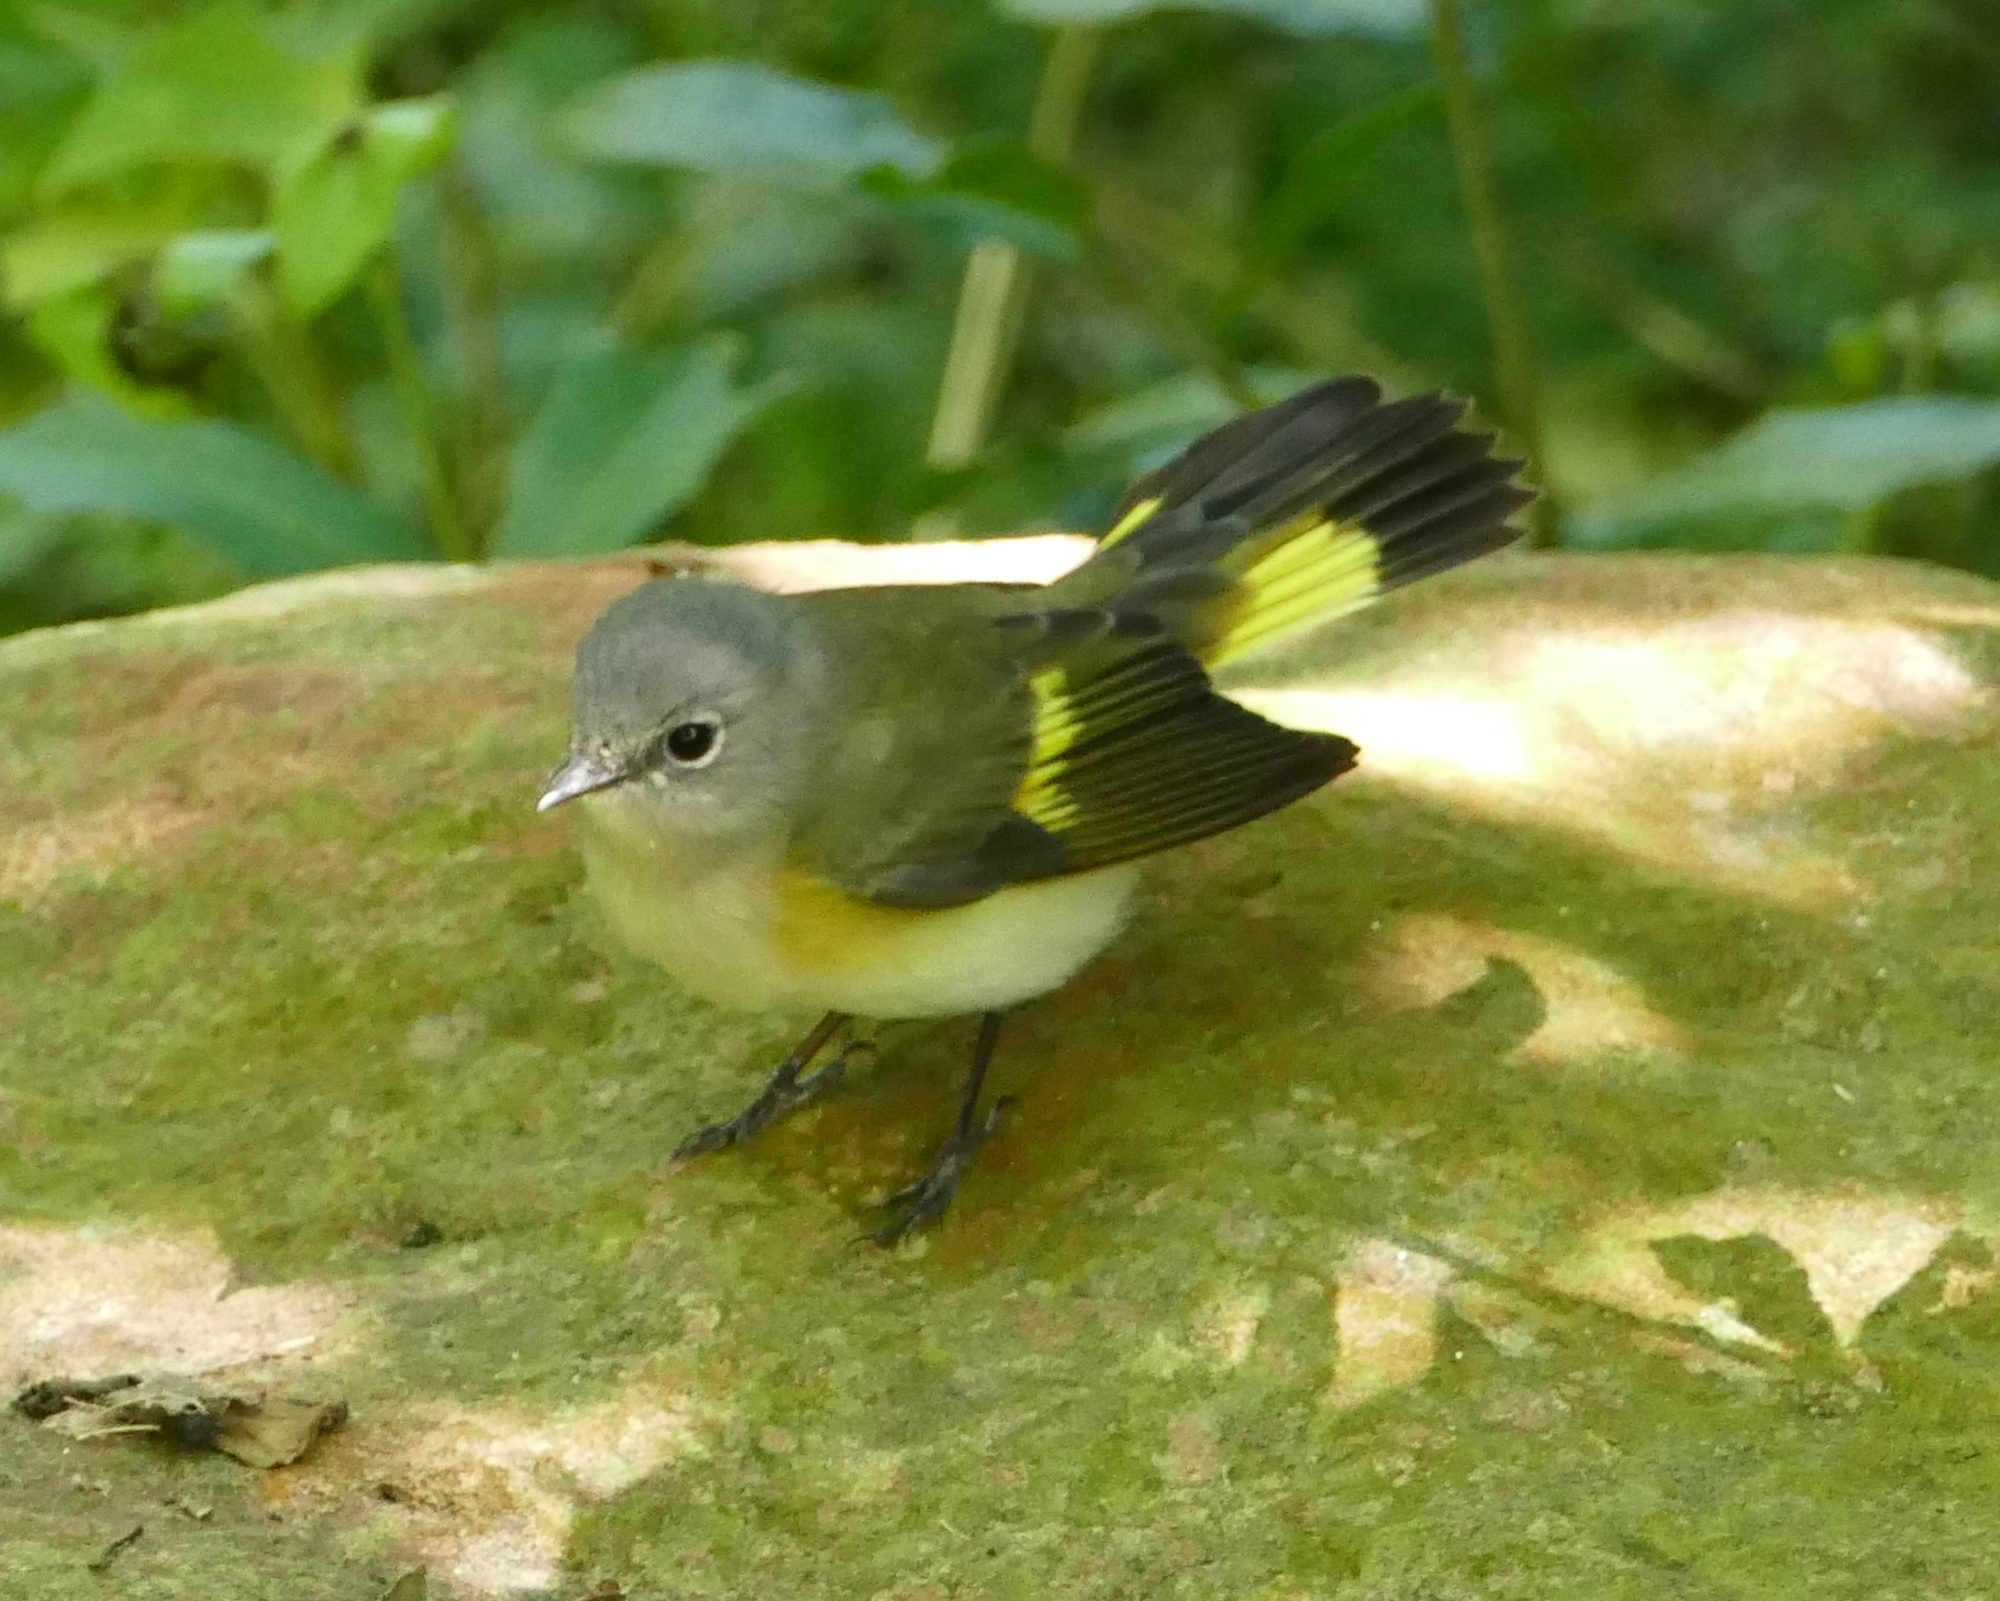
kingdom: Animalia
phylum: Chordata
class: Aves
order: Passeriformes
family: Parulidae
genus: Setophaga
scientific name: Setophaga ruticilla
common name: American redstart
